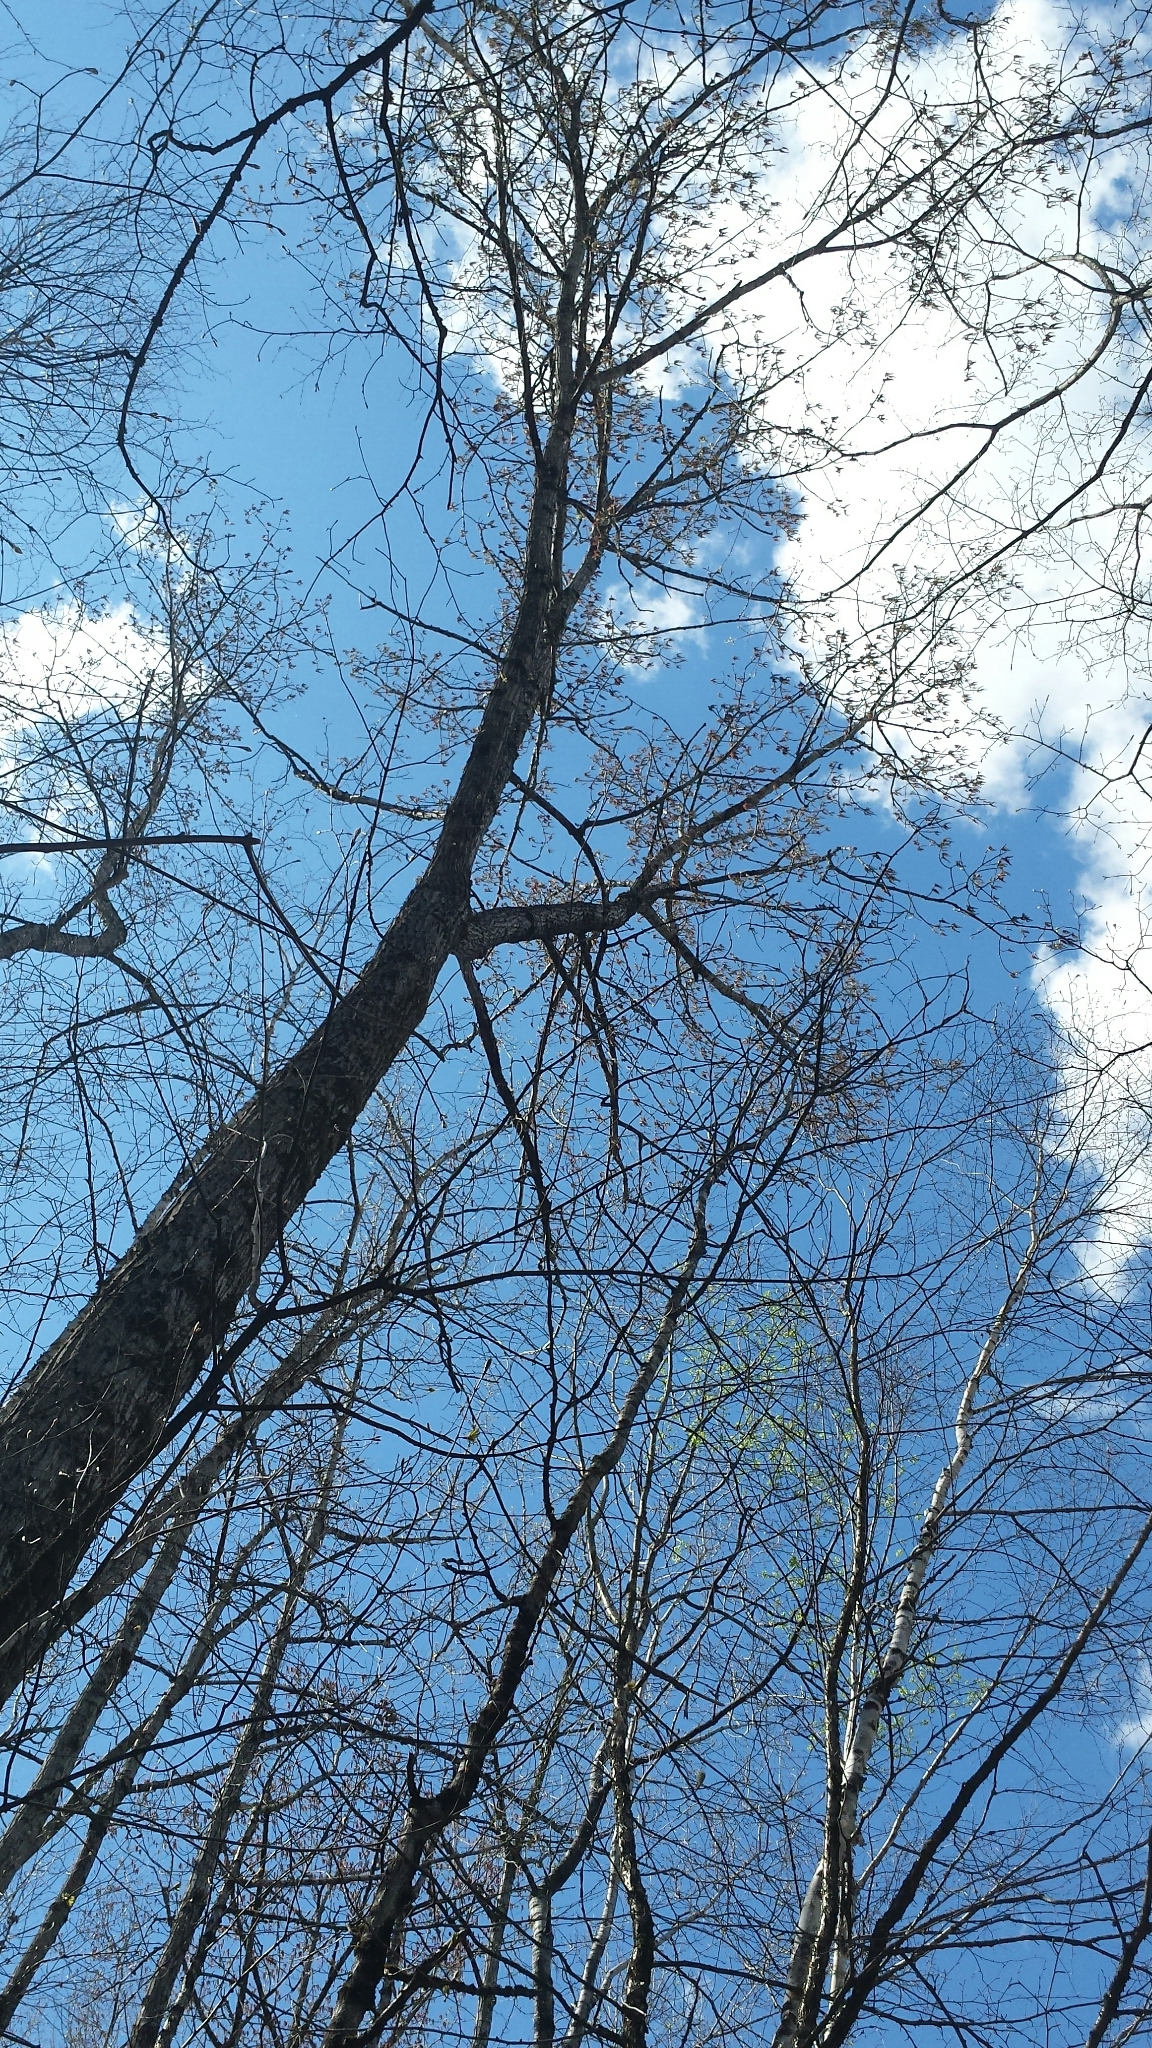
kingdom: Plantae
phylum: Tracheophyta
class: Magnoliopsida
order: Malpighiales
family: Salicaceae
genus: Populus
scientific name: Populus deltoides
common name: Eastern cottonwood
